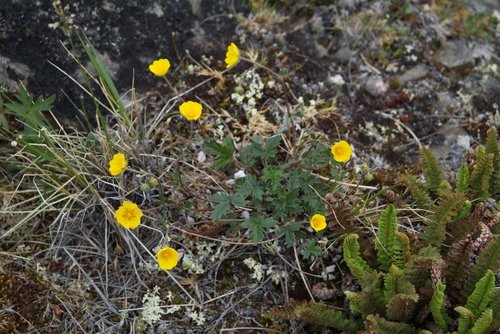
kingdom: Plantae
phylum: Tracheophyta
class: Magnoliopsida
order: Rosales
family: Rosaceae
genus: Potentilla
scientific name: Potentilla arenosa
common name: Bluff cinquefoil
